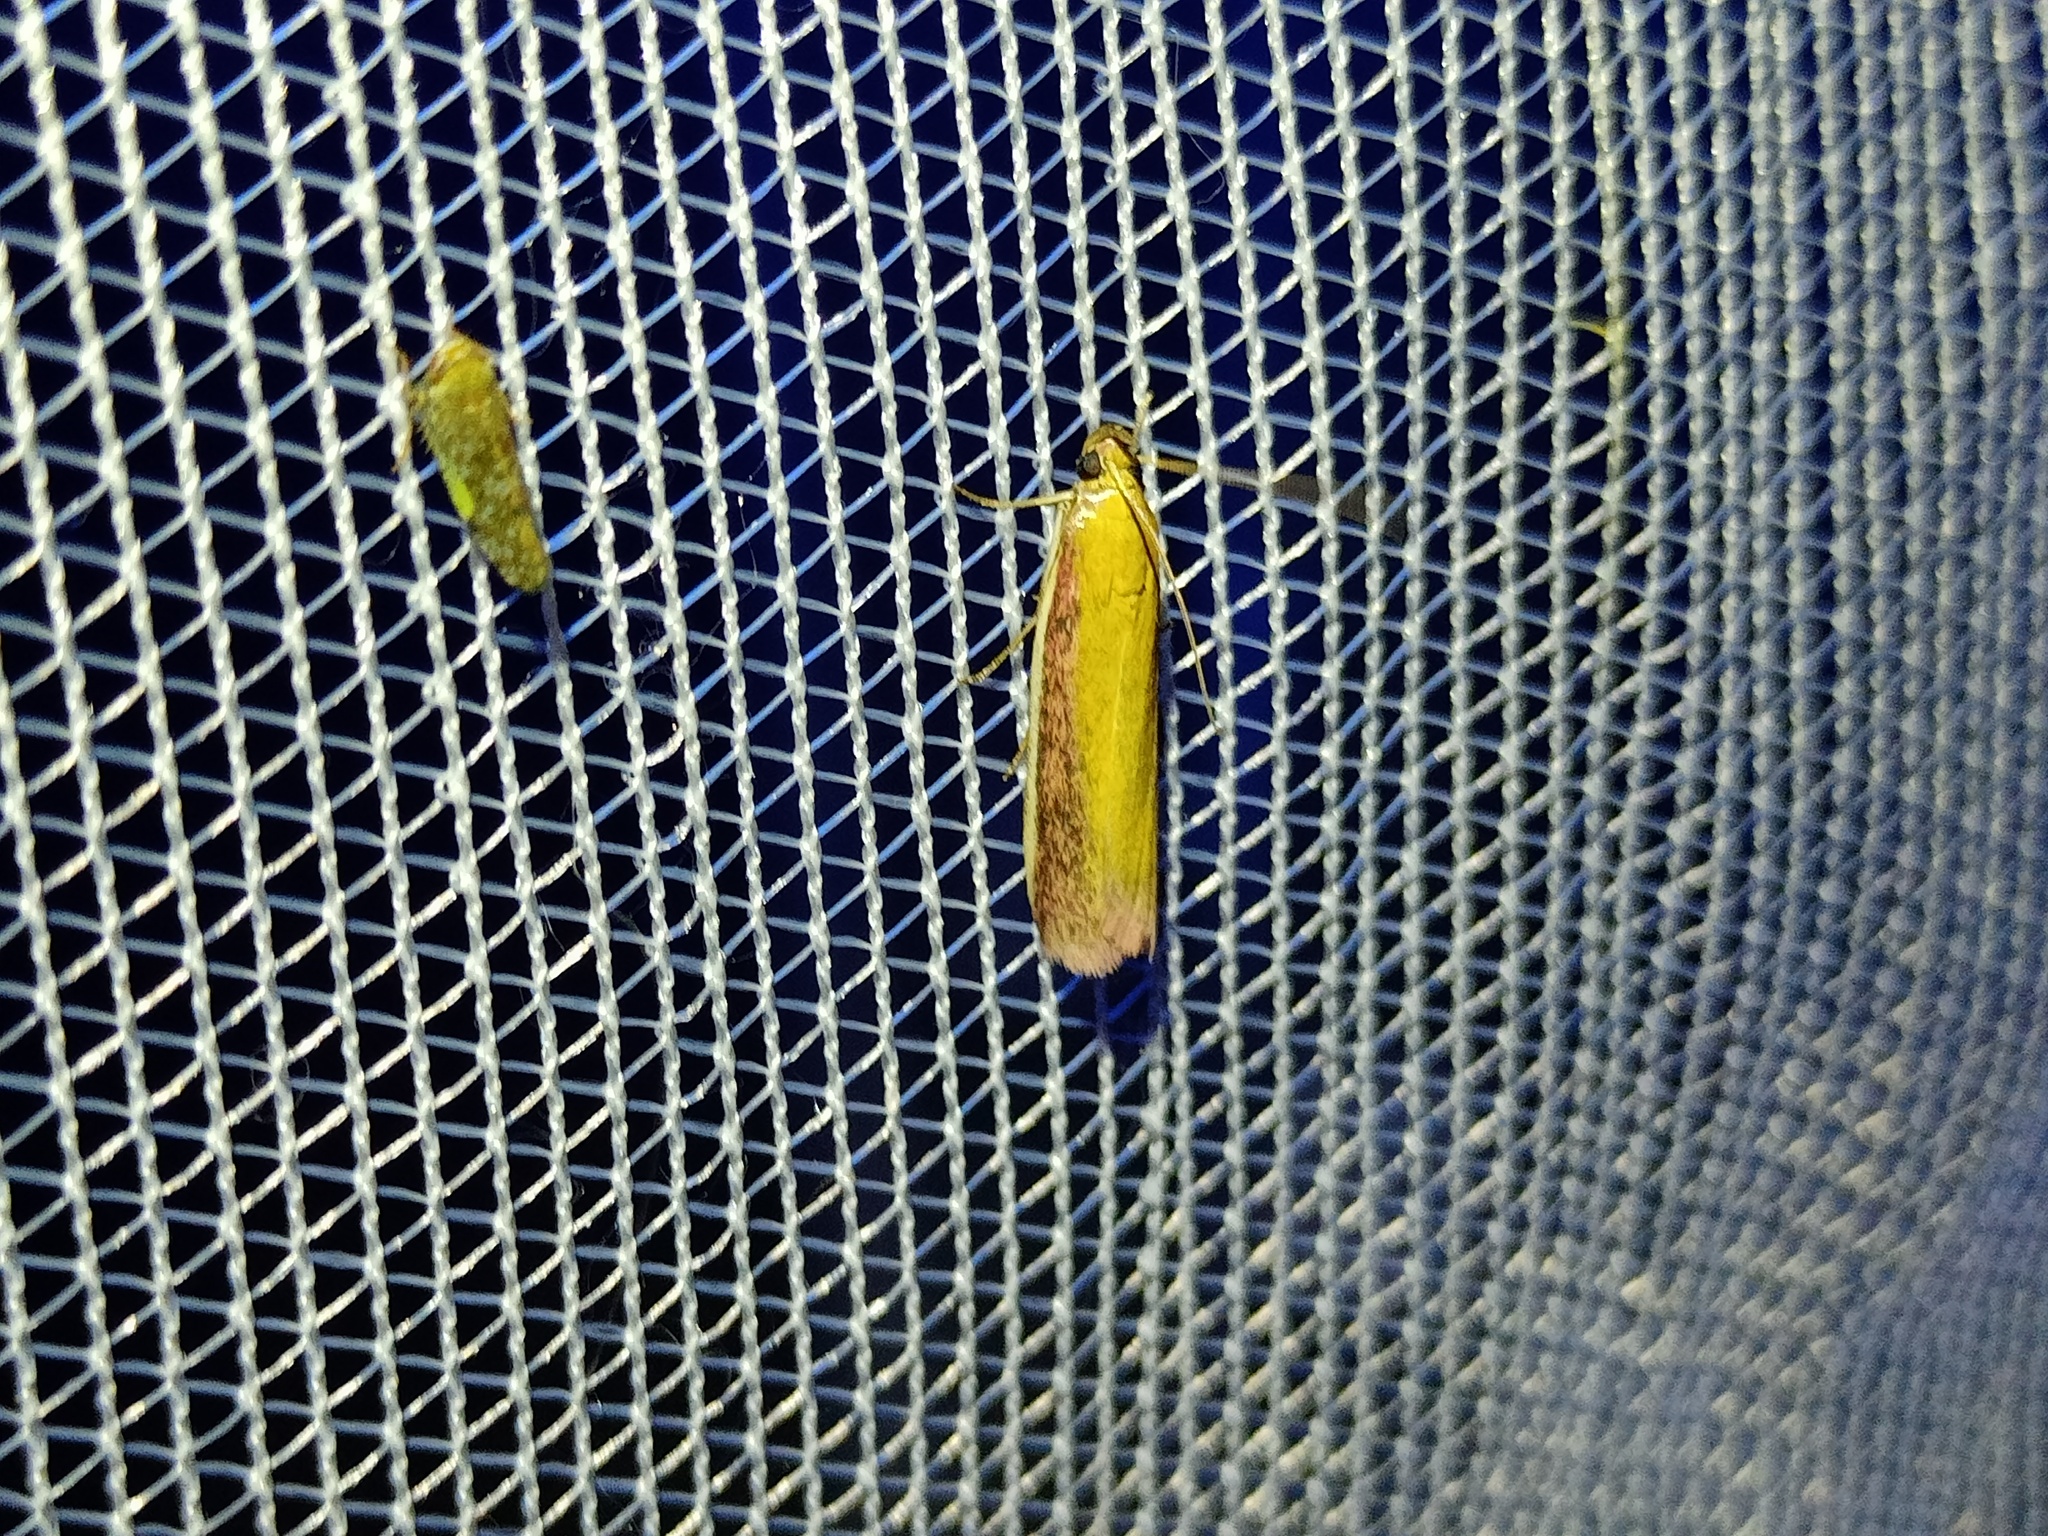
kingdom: Animalia
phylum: Arthropoda
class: Insecta
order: Lepidoptera
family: Pyralidae
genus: Oncocera
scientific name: Oncocera semirubella
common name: Rosy-striped knot-horn
